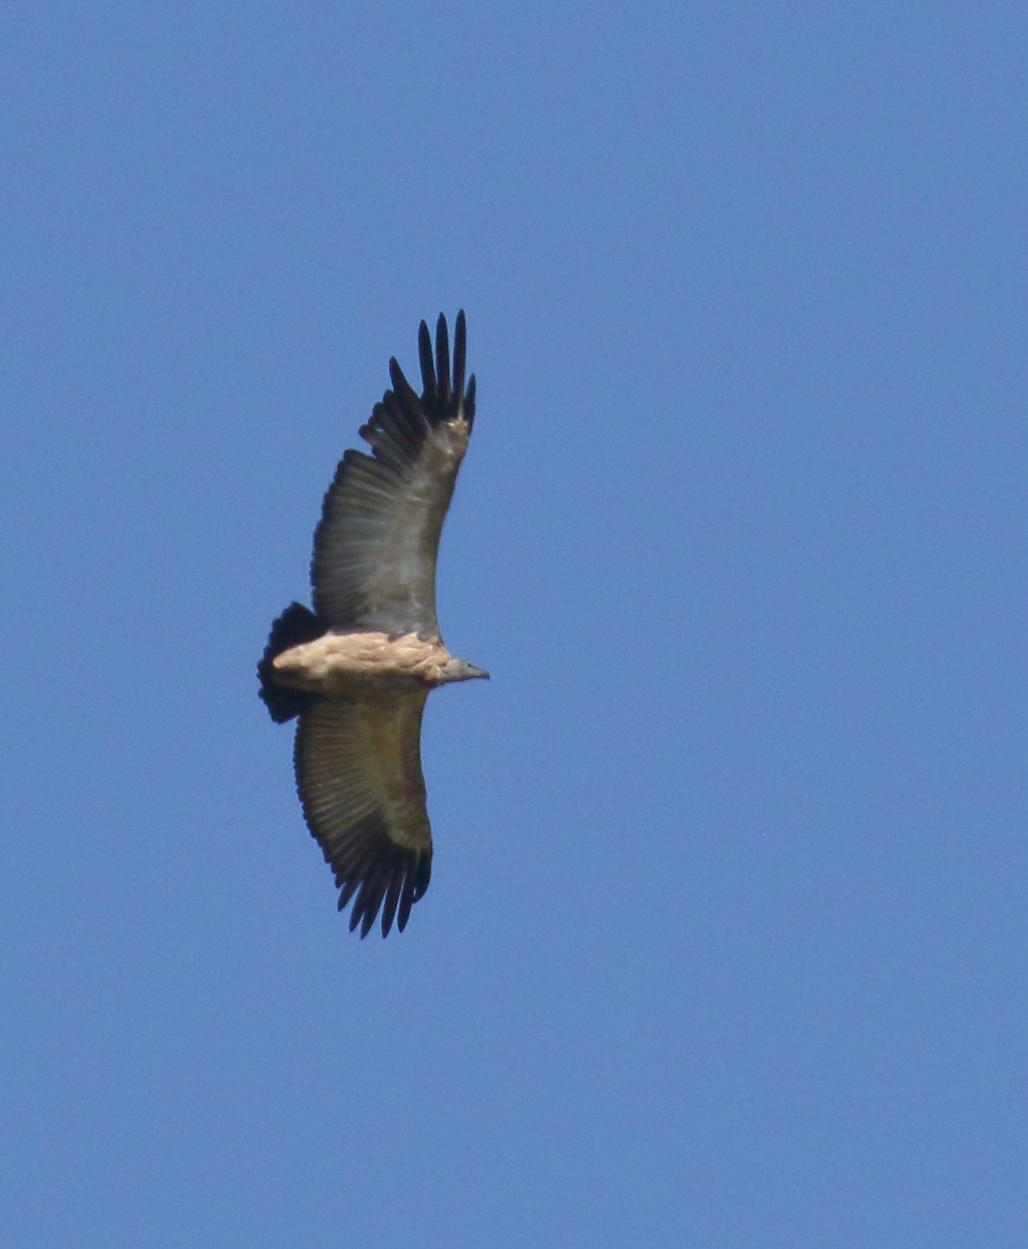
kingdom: Animalia
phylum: Chordata
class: Aves
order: Accipitriformes
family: Accipitridae
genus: Gyps
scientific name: Gyps coprotheres
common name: Cape vulture
